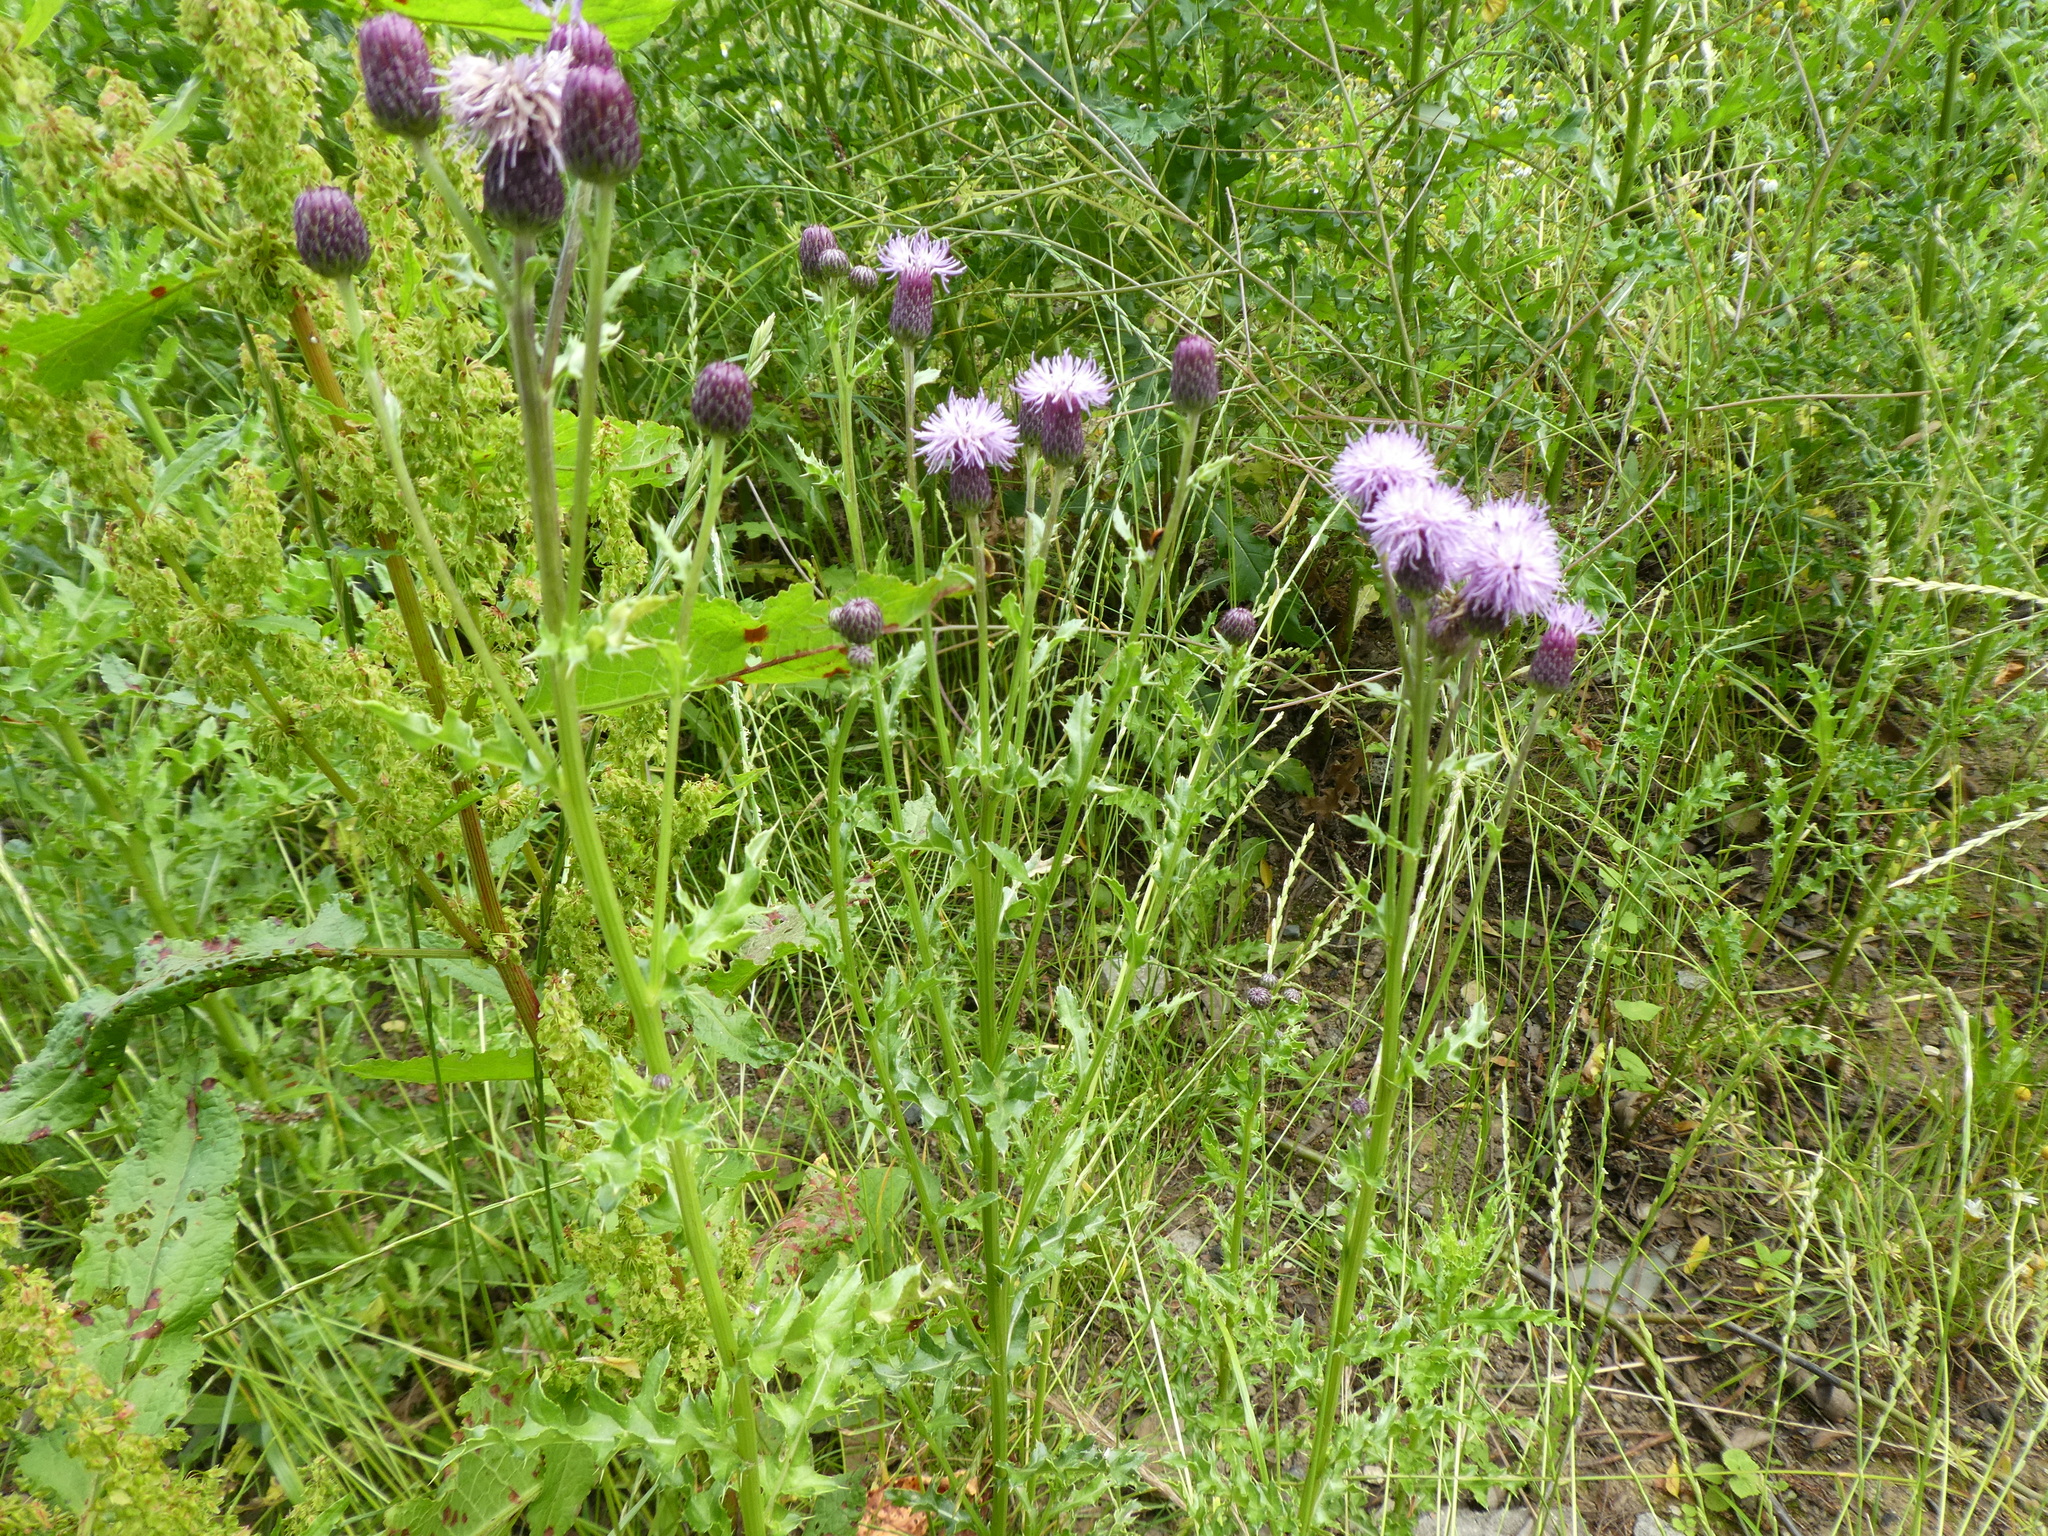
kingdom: Plantae
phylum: Tracheophyta
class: Magnoliopsida
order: Asterales
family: Asteraceae
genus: Cirsium
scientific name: Cirsium arvense
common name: Creeping thistle
